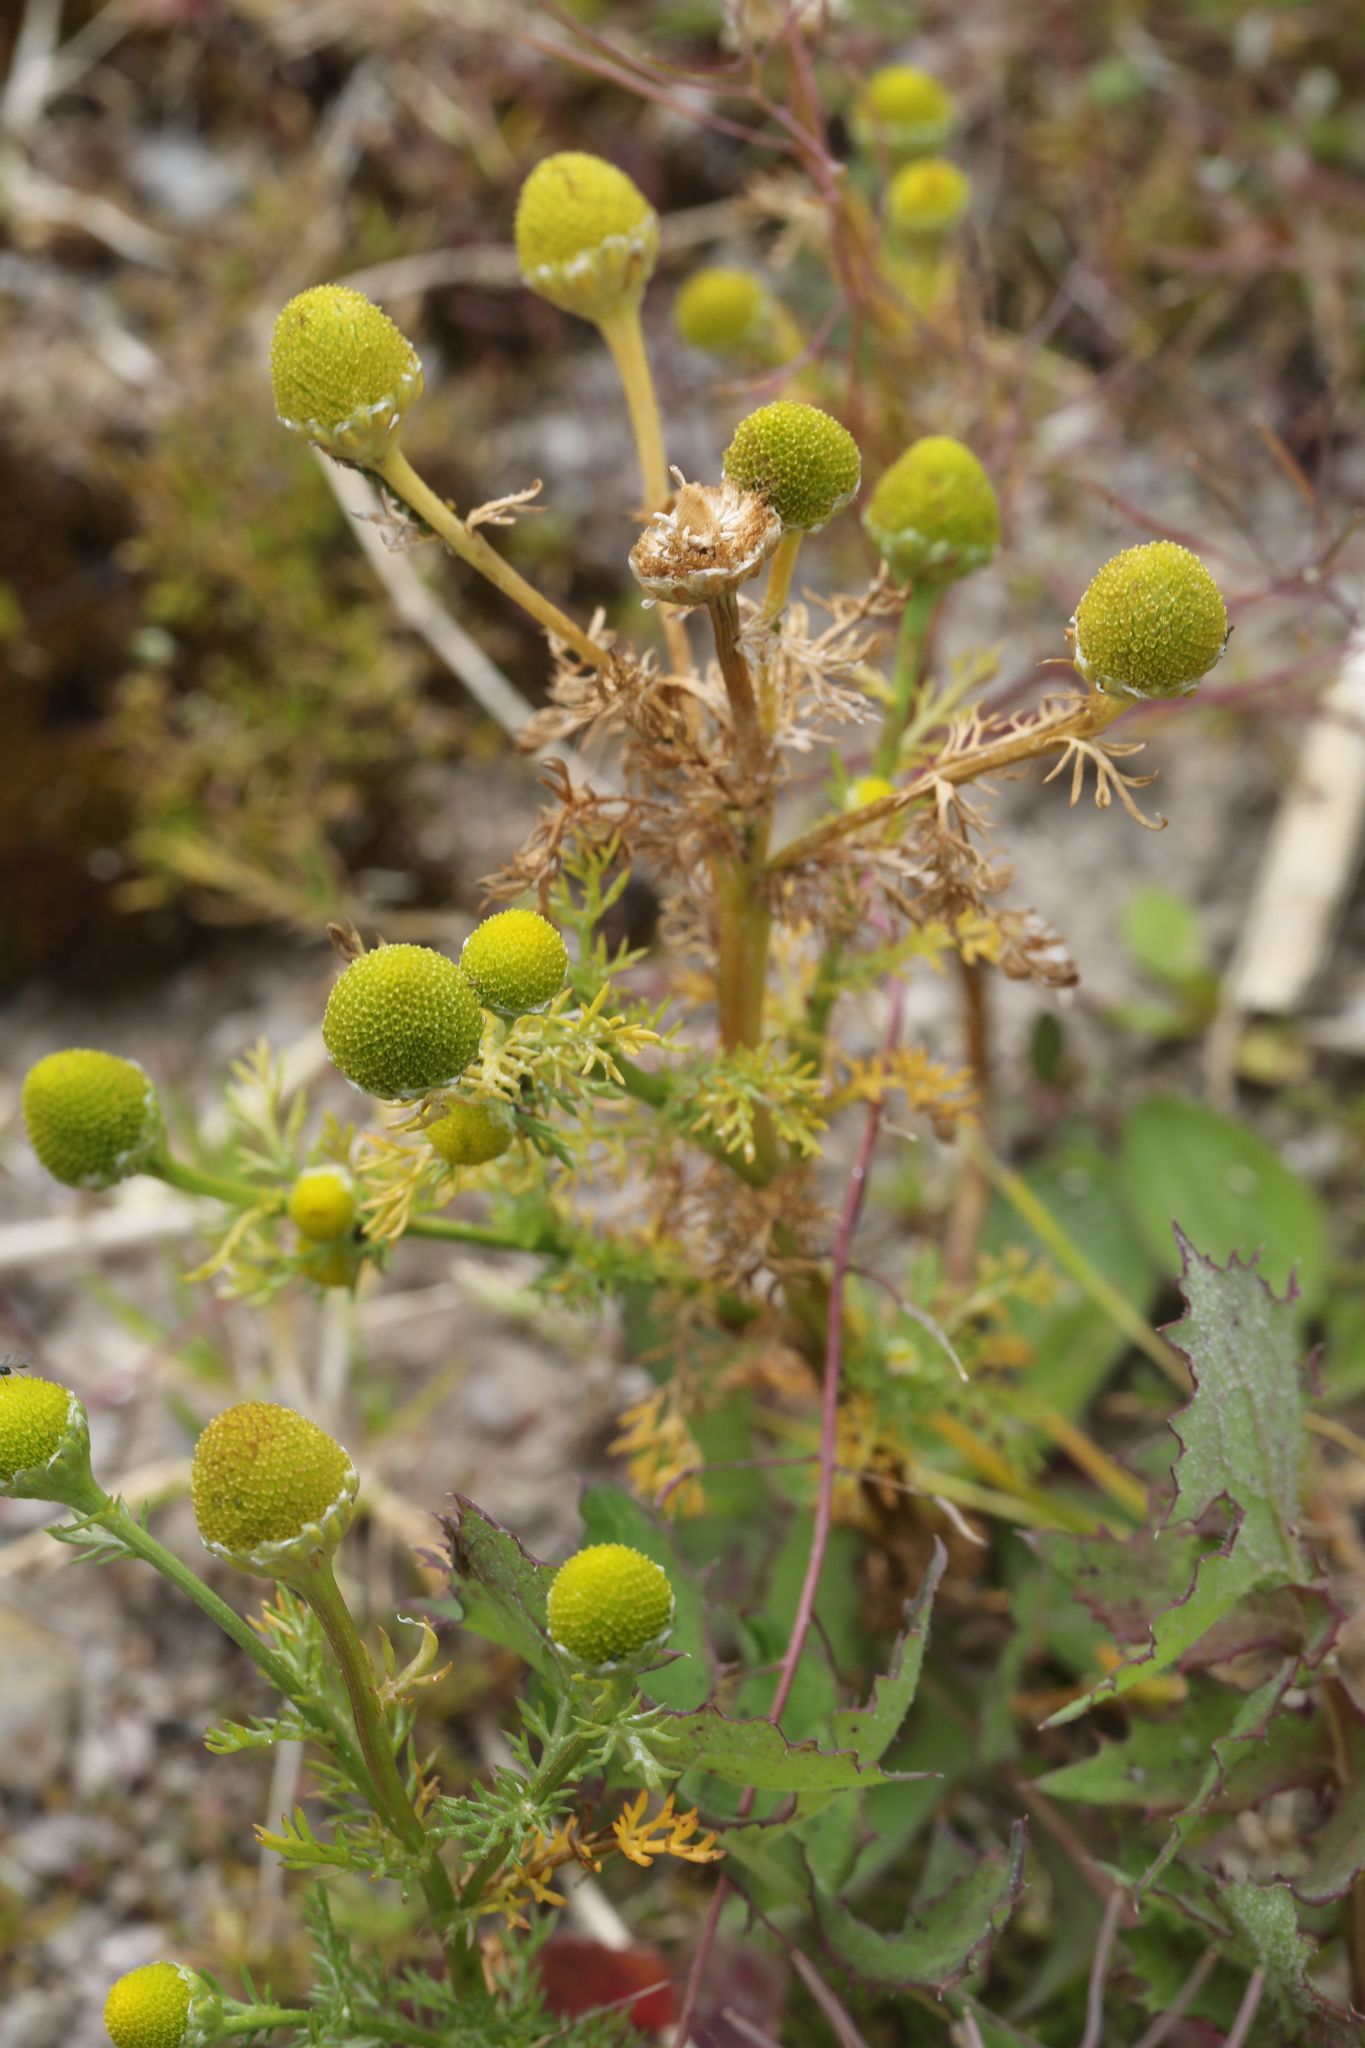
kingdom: Plantae
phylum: Tracheophyta
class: Magnoliopsida
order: Asterales
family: Asteraceae
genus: Matricaria
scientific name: Matricaria discoidea
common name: Disc mayweed
